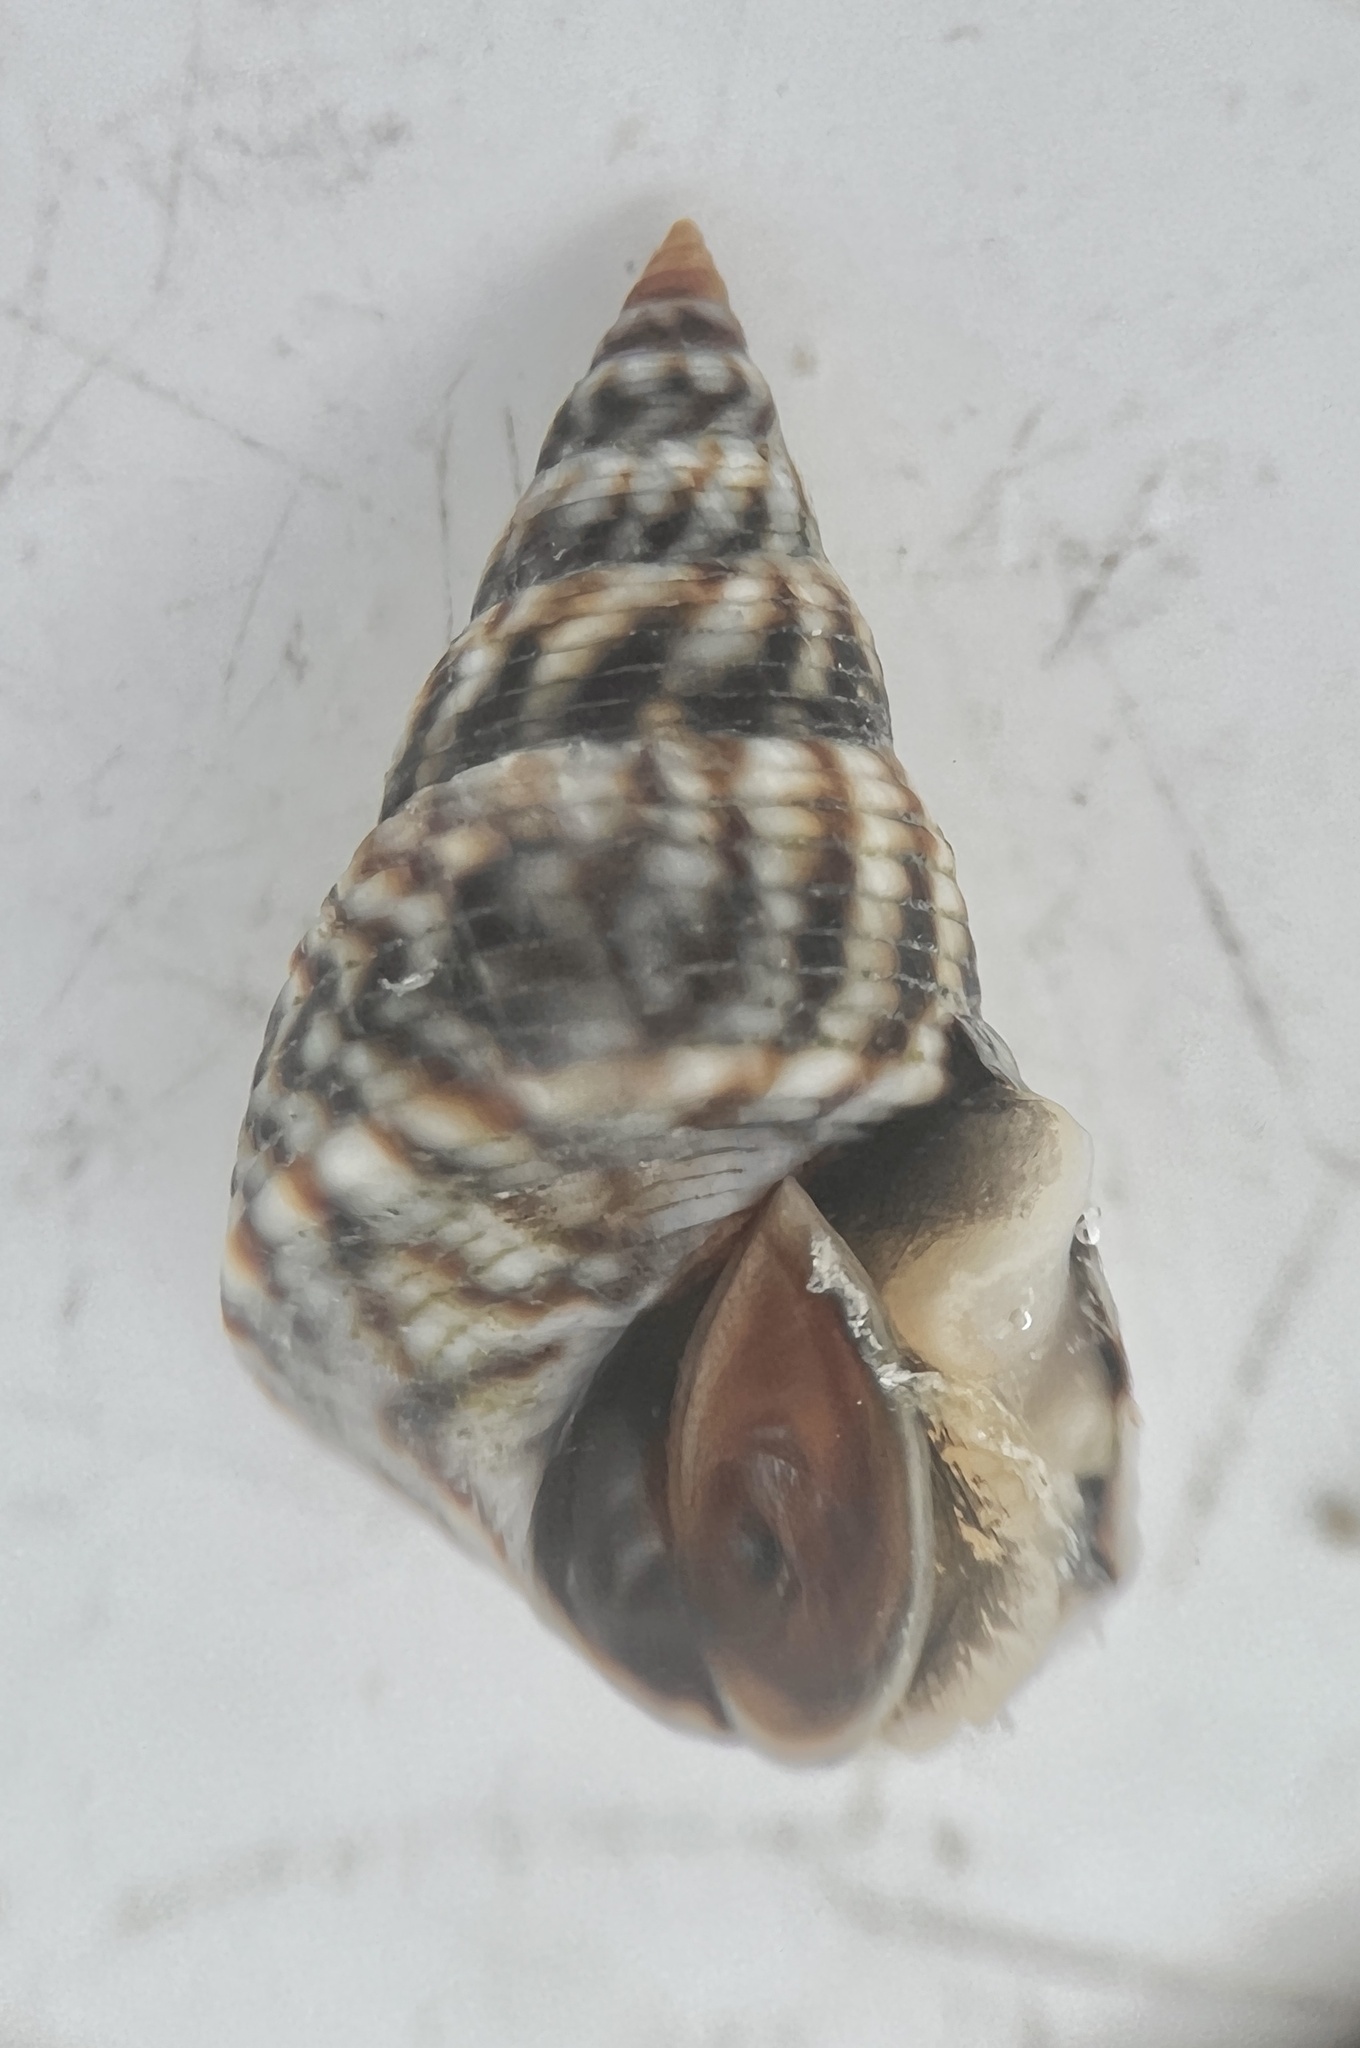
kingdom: Animalia
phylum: Mollusca
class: Gastropoda
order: Littorinimorpha
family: Littorinidae
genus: Echinolittorina
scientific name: Echinolittorina angustior
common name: Slender periwinkle
